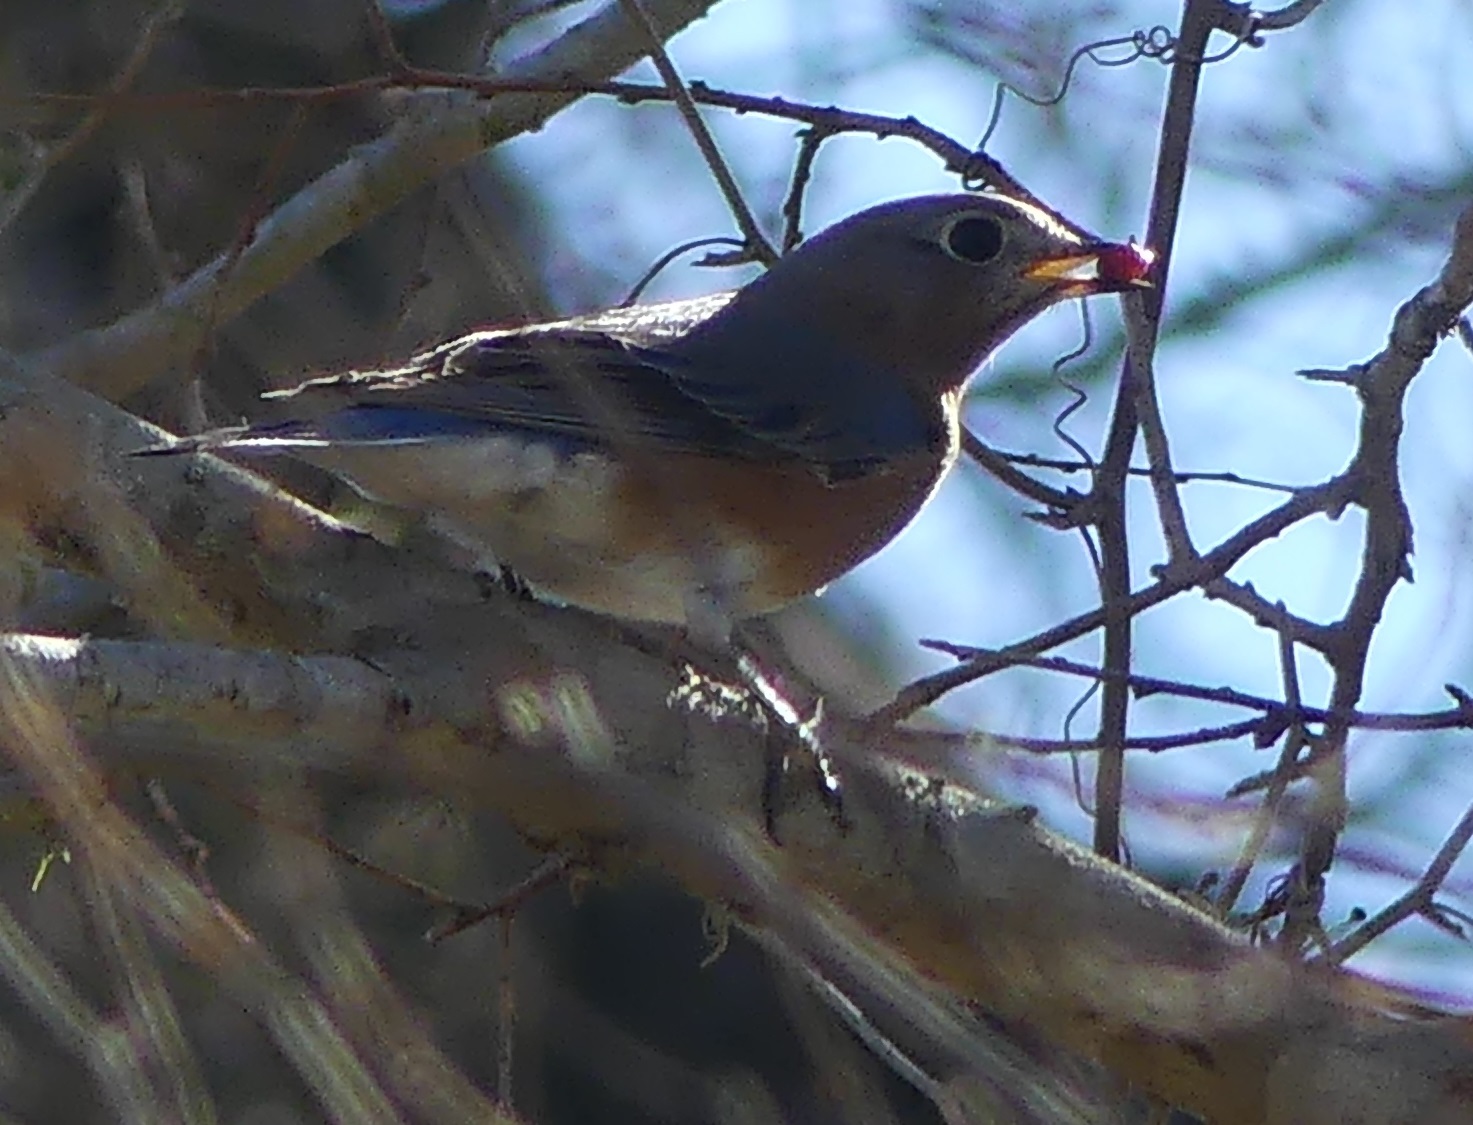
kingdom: Animalia
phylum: Chordata
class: Aves
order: Passeriformes
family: Turdidae
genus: Sialia
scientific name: Sialia sialis
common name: Eastern bluebird
